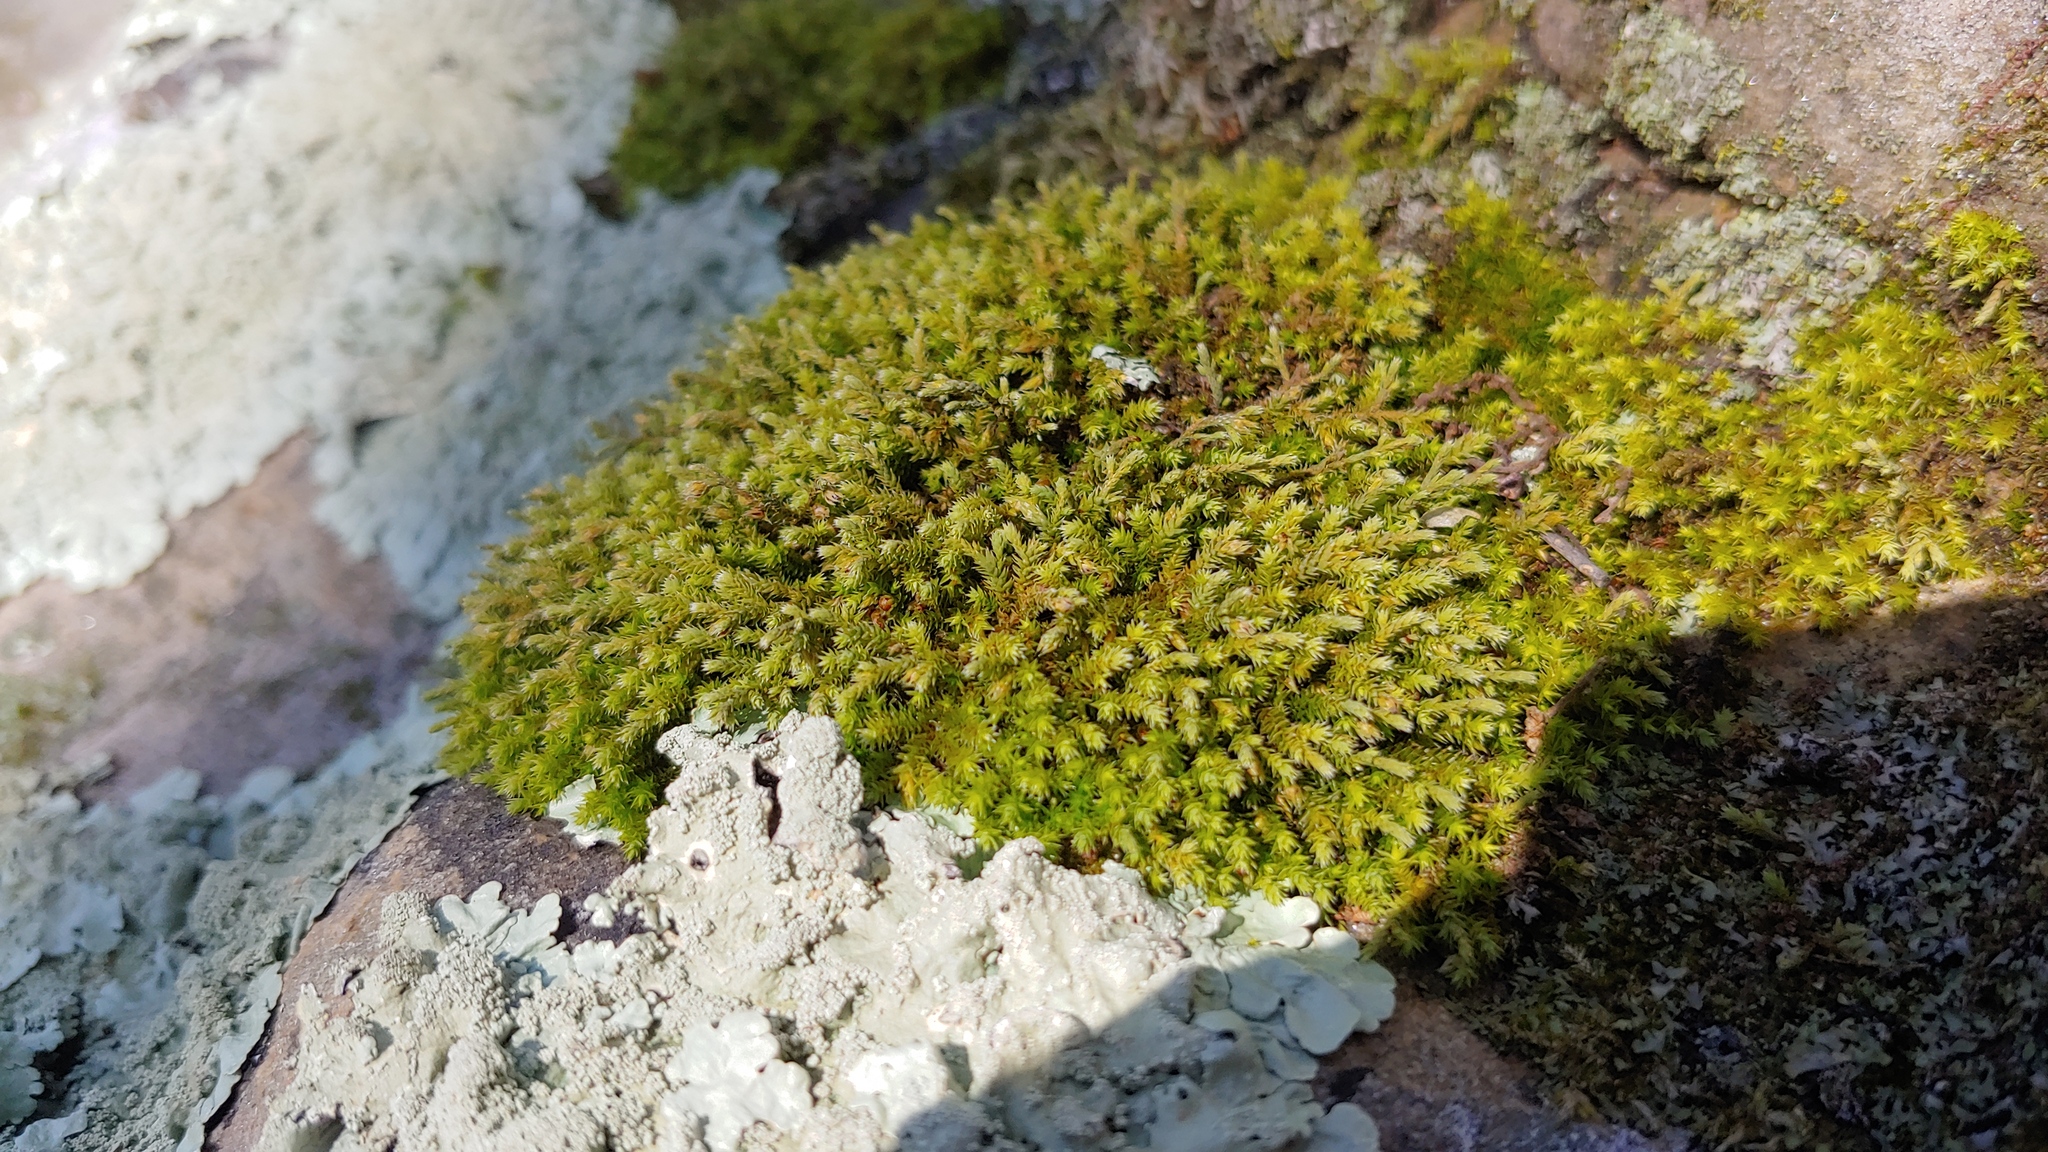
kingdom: Plantae
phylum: Bryophyta
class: Bryopsida
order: Hedwigiales
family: Hedwigiaceae
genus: Hedwigia
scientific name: Hedwigia ciliata
